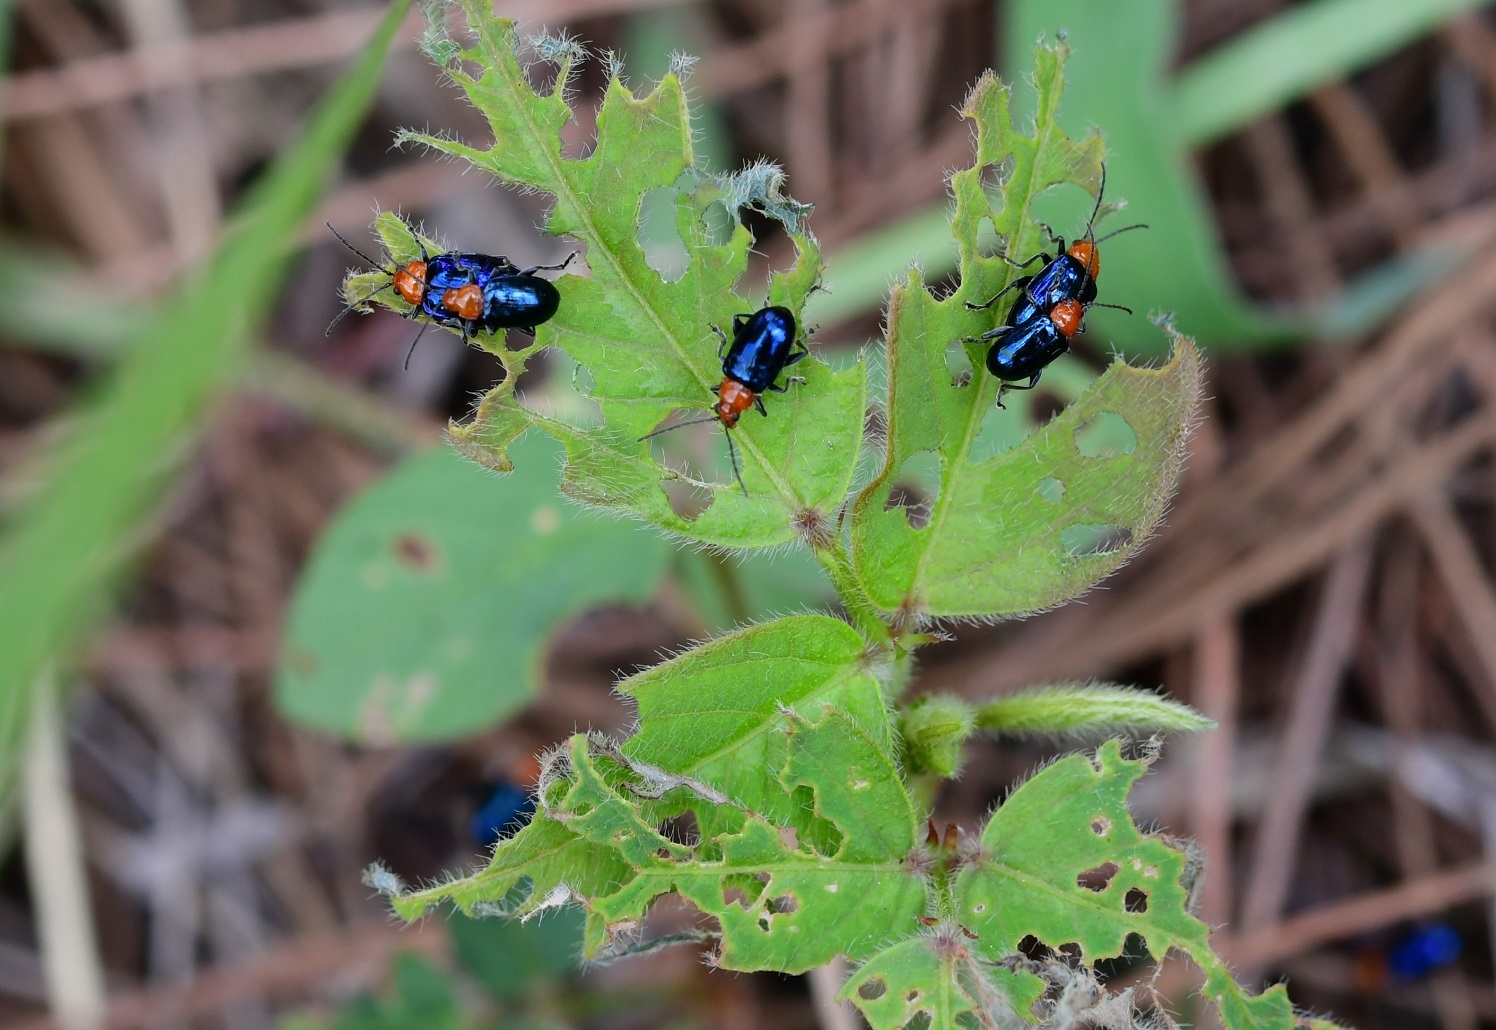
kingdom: Animalia
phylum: Arthropoda
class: Insecta
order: Coleoptera
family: Chrysomelidae
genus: Diphaulaca
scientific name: Diphaulaca wagneri
